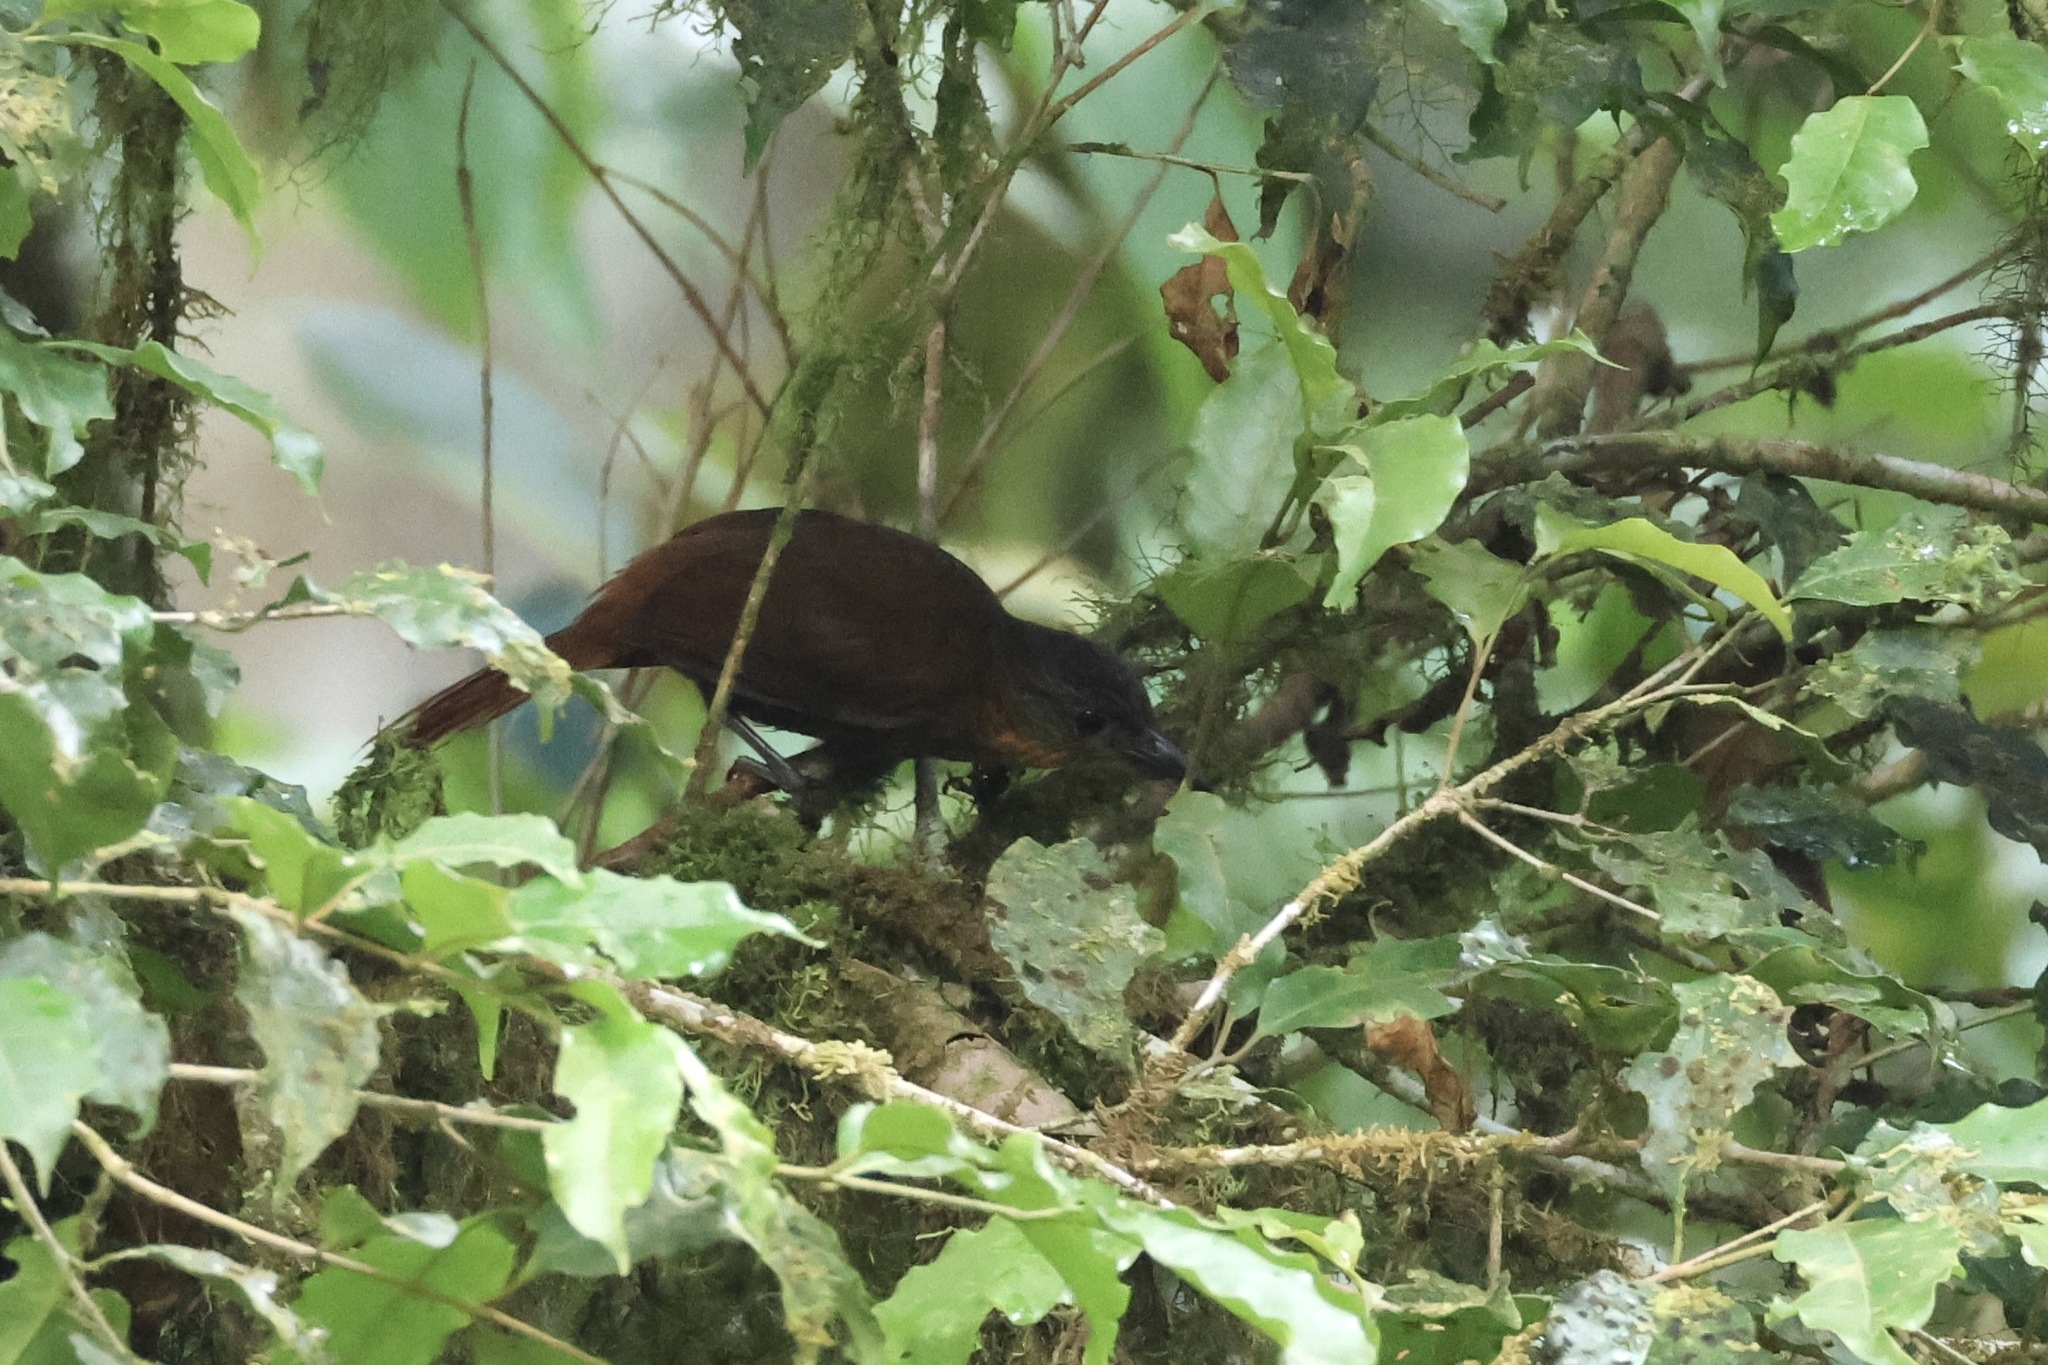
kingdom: Animalia
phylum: Chordata
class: Aves
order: Passeriformes
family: Furnariidae
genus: Thripadectes
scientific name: Thripadectes rufobrunneus
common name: Streak-breasted treehunter
